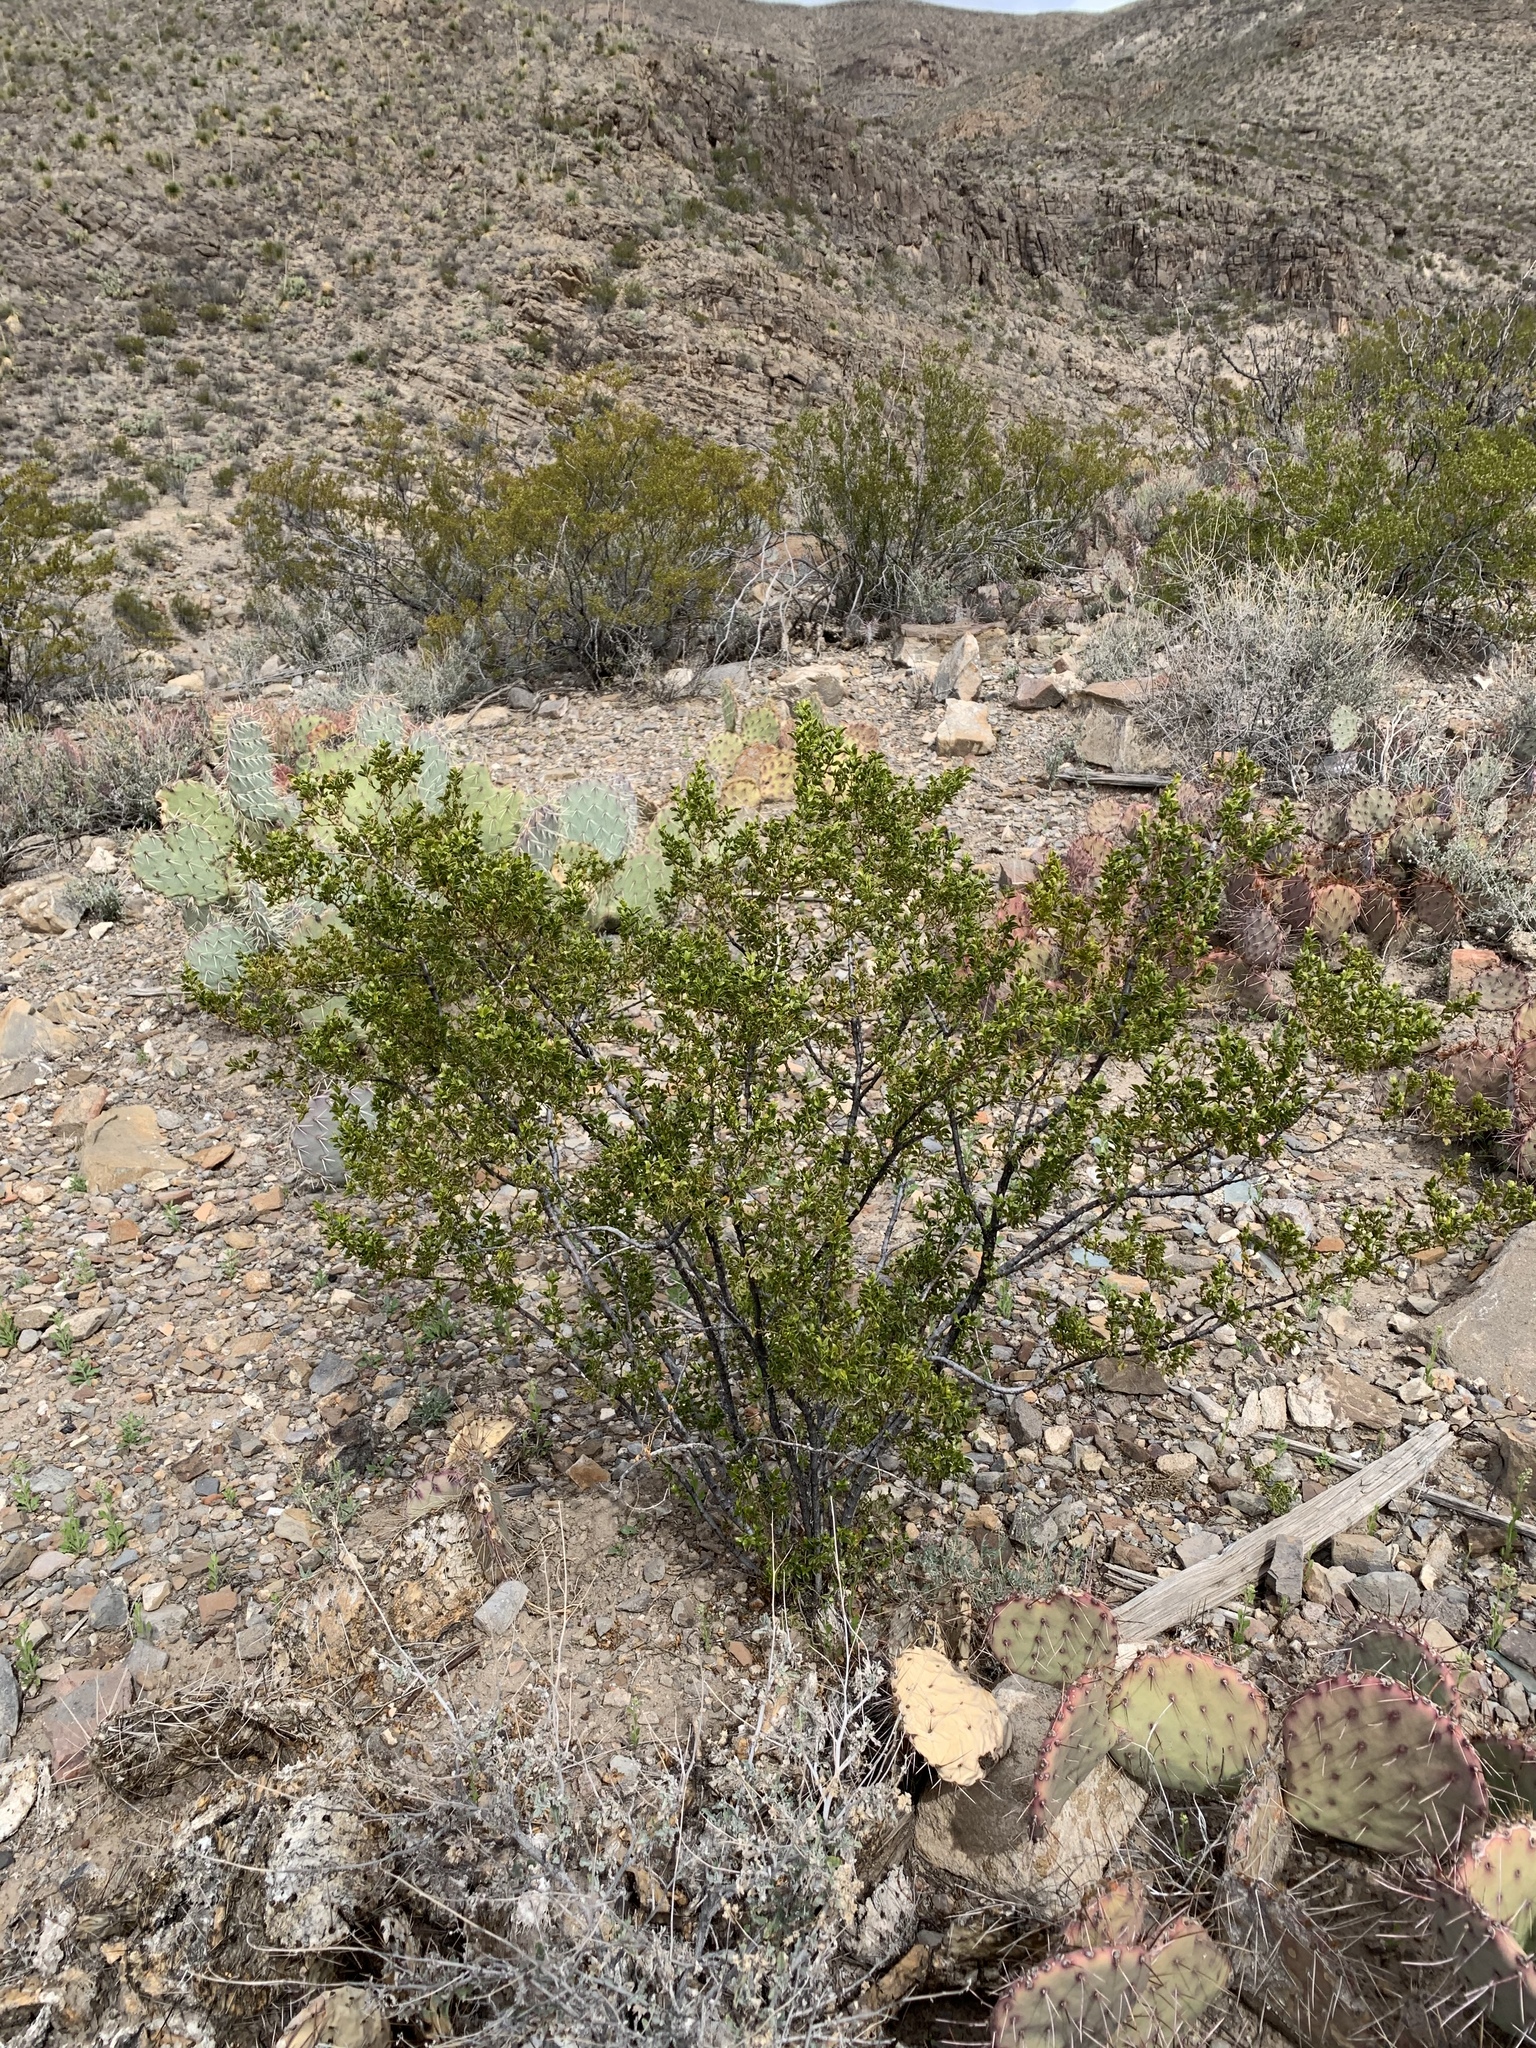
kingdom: Plantae
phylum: Tracheophyta
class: Magnoliopsida
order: Zygophyllales
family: Zygophyllaceae
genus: Larrea
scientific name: Larrea tridentata
